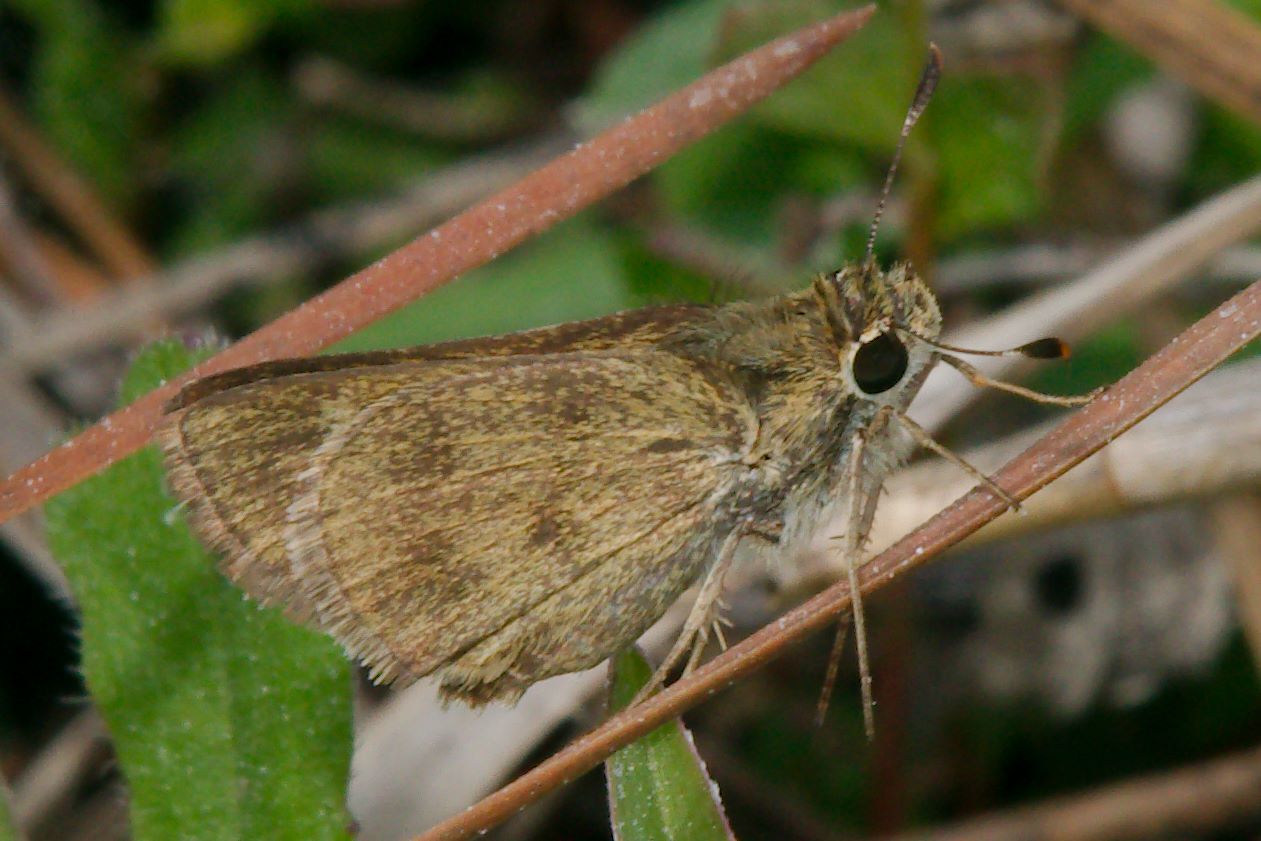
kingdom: Animalia
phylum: Arthropoda
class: Insecta
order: Lepidoptera
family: Hesperiidae
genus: Polites
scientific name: Polites vibex
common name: Whirlabout
